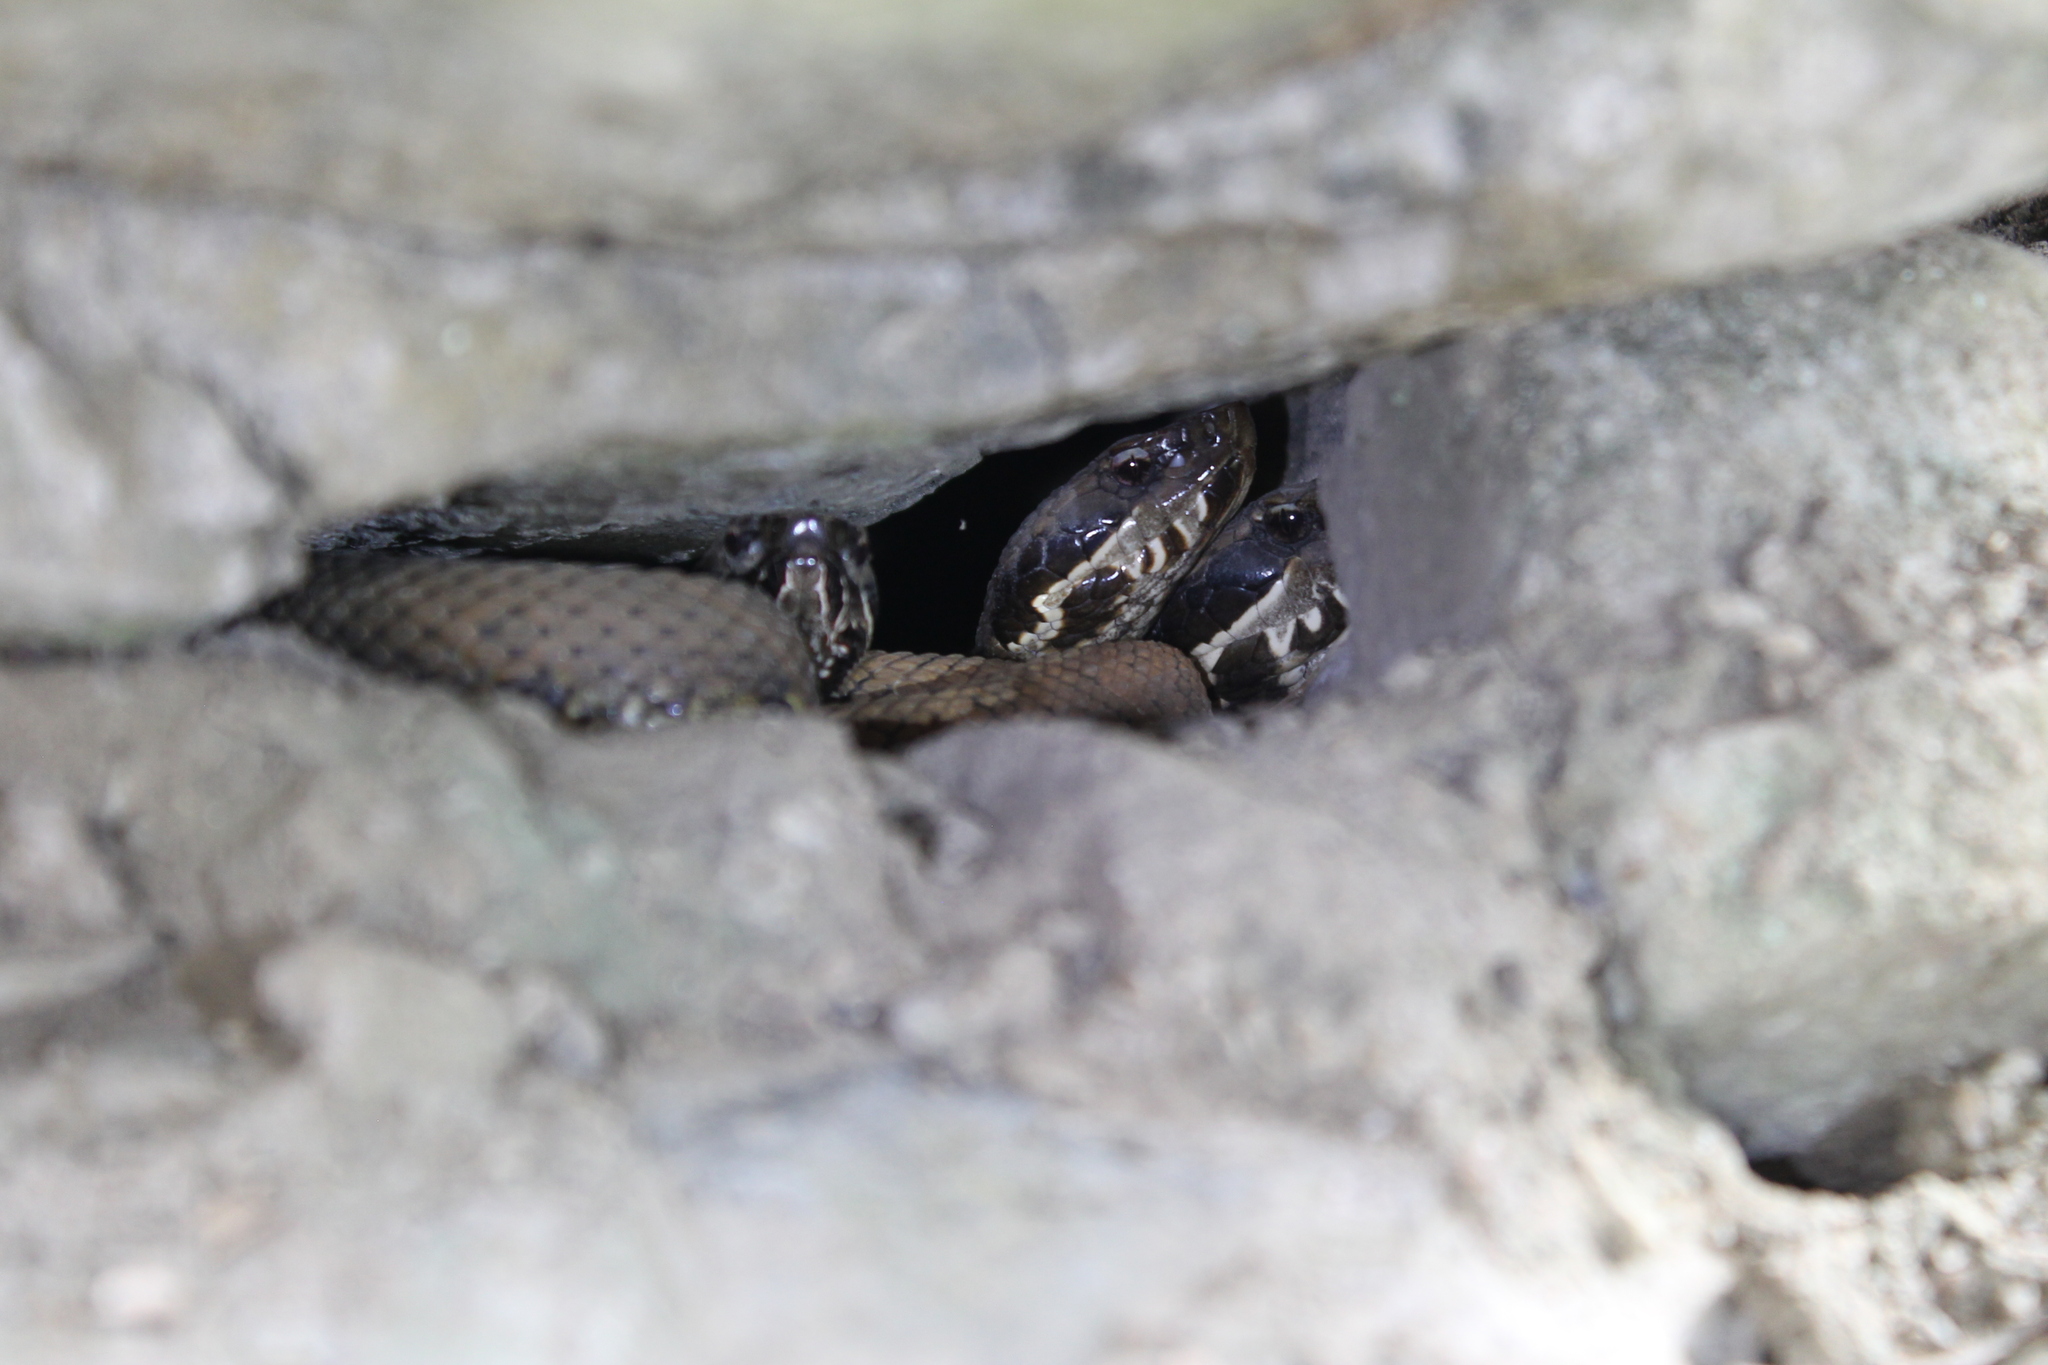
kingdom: Animalia
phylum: Chordata
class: Squamata
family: Viperidae
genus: Agkistrodon
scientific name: Agkistrodon piscivorus
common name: Cottonmouth
